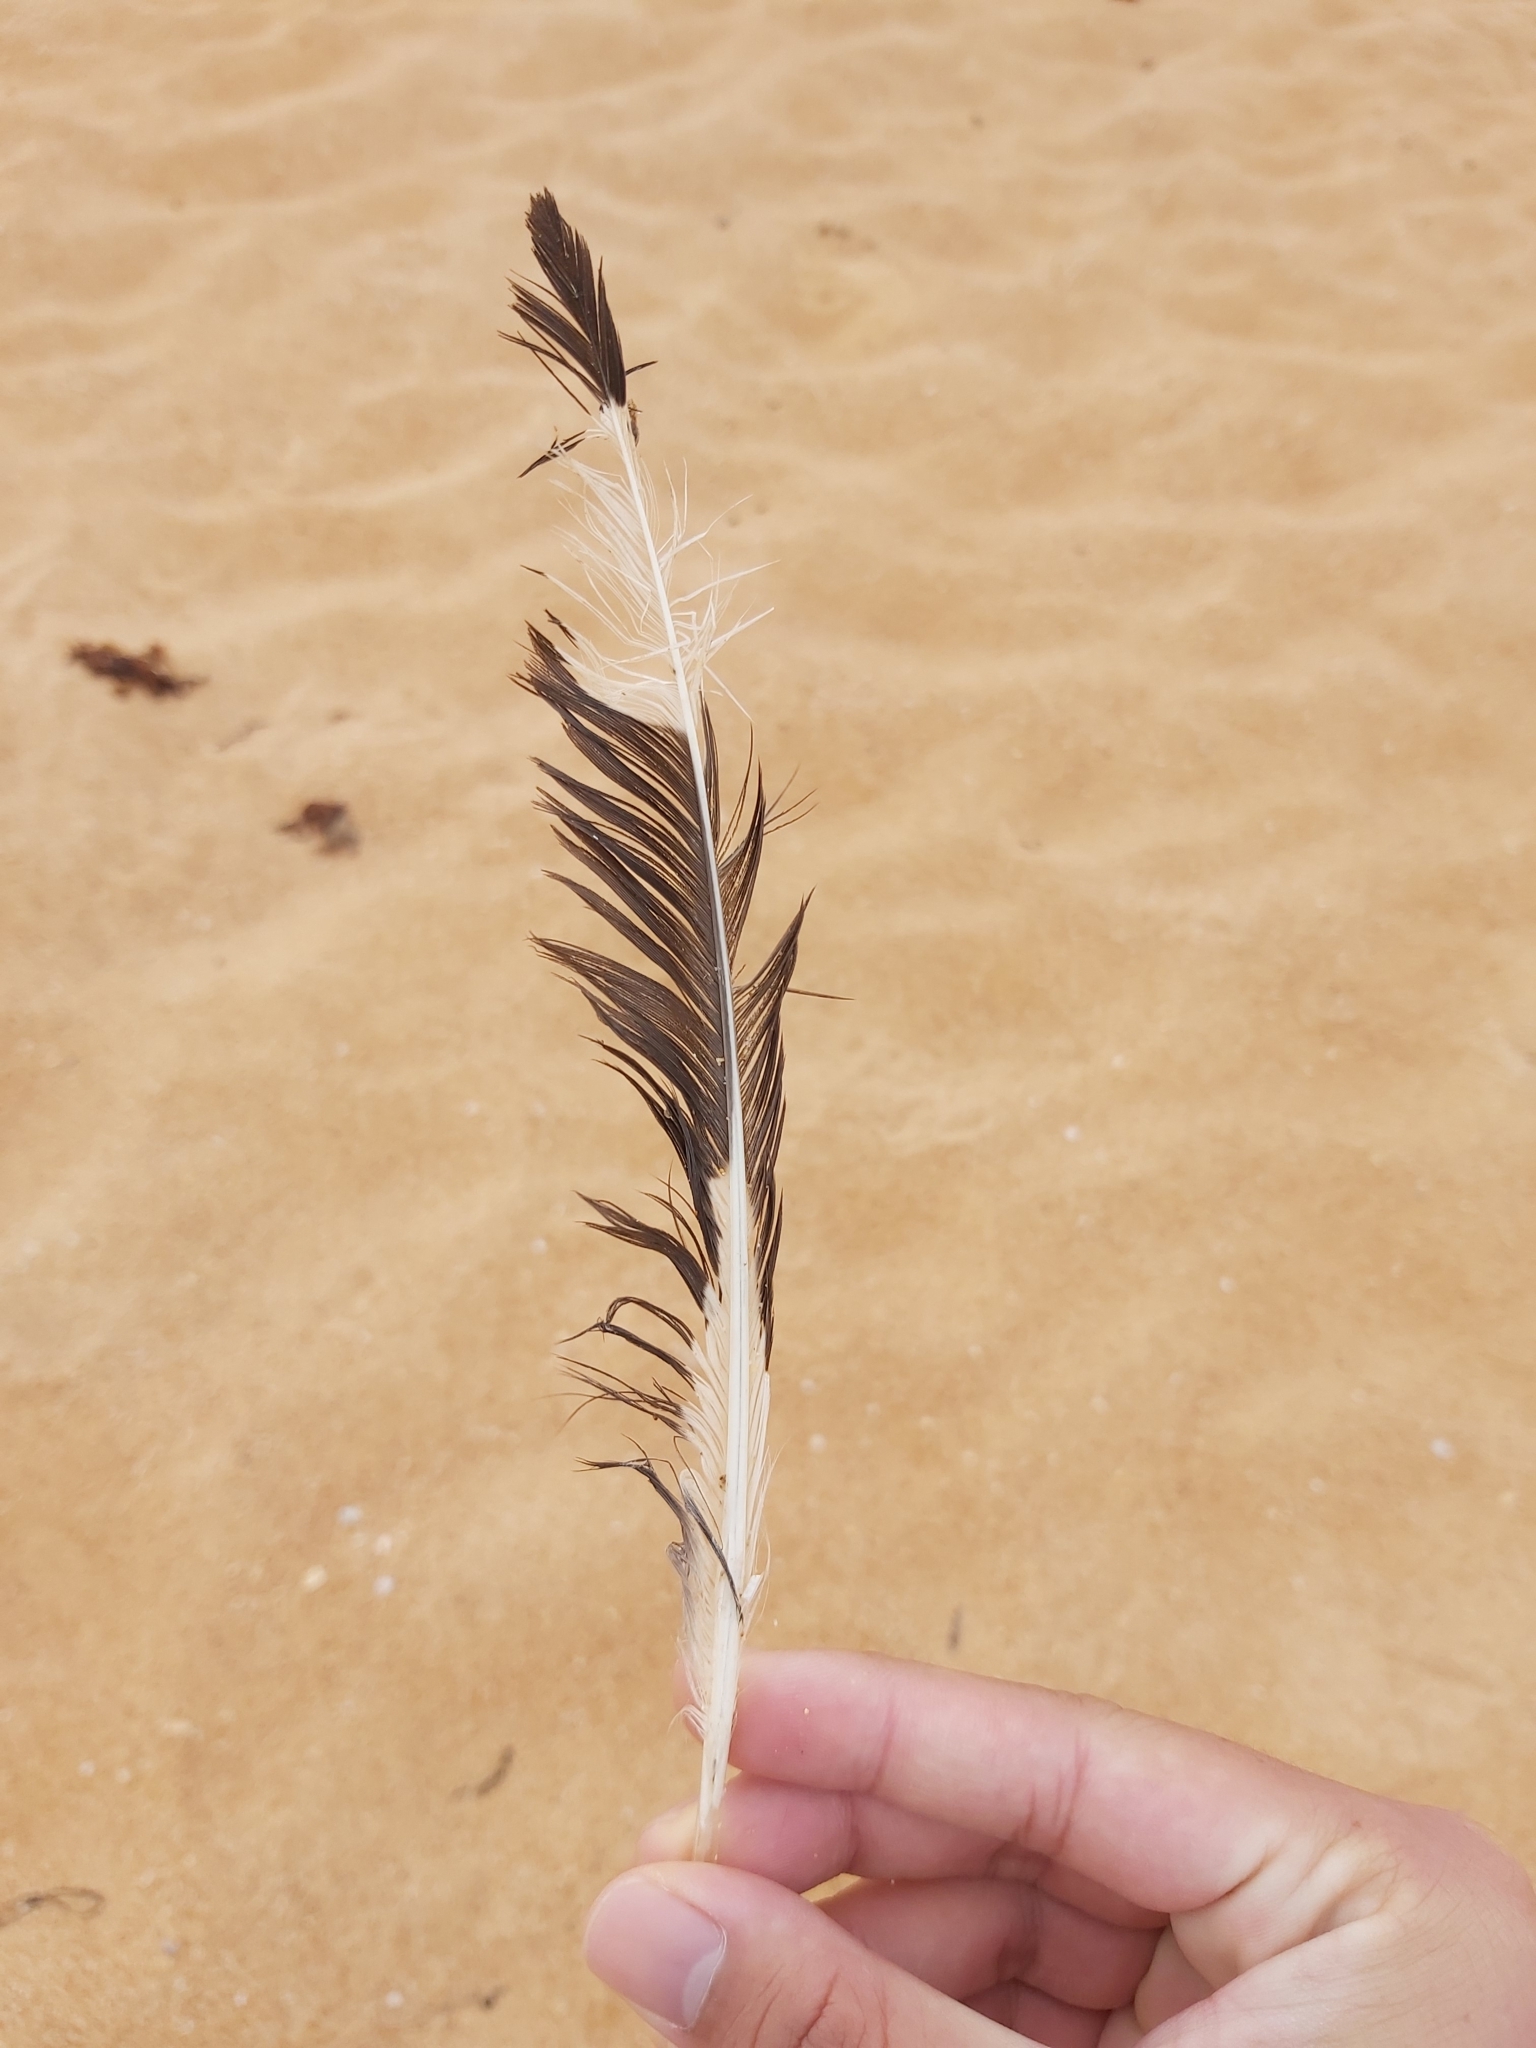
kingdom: Animalia
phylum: Chordata
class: Aves
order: Charadriiformes
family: Laridae
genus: Chroicocephalus
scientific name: Chroicocephalus novaehollandiae
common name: Silver gull
